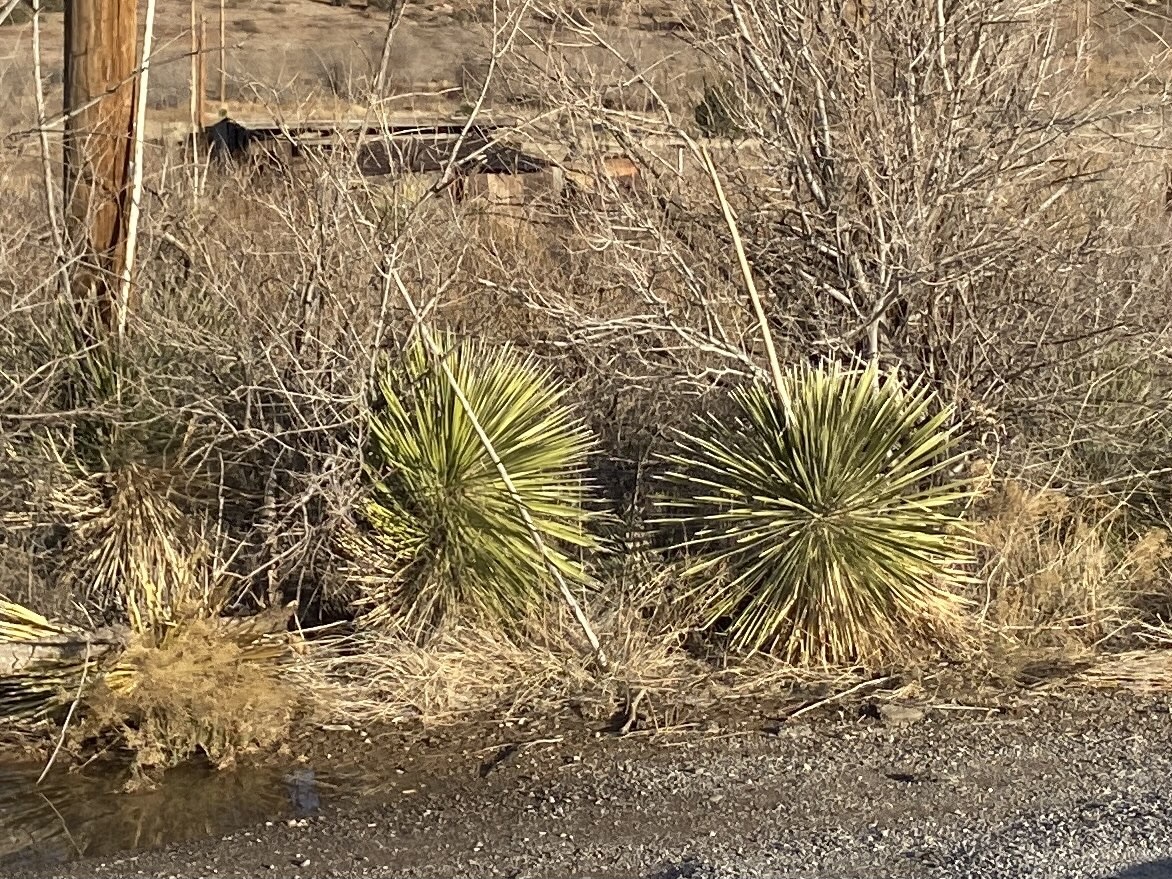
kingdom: Plantae
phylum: Tracheophyta
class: Liliopsida
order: Asparagales
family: Asparagaceae
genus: Yucca
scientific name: Yucca elata
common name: Palmella
